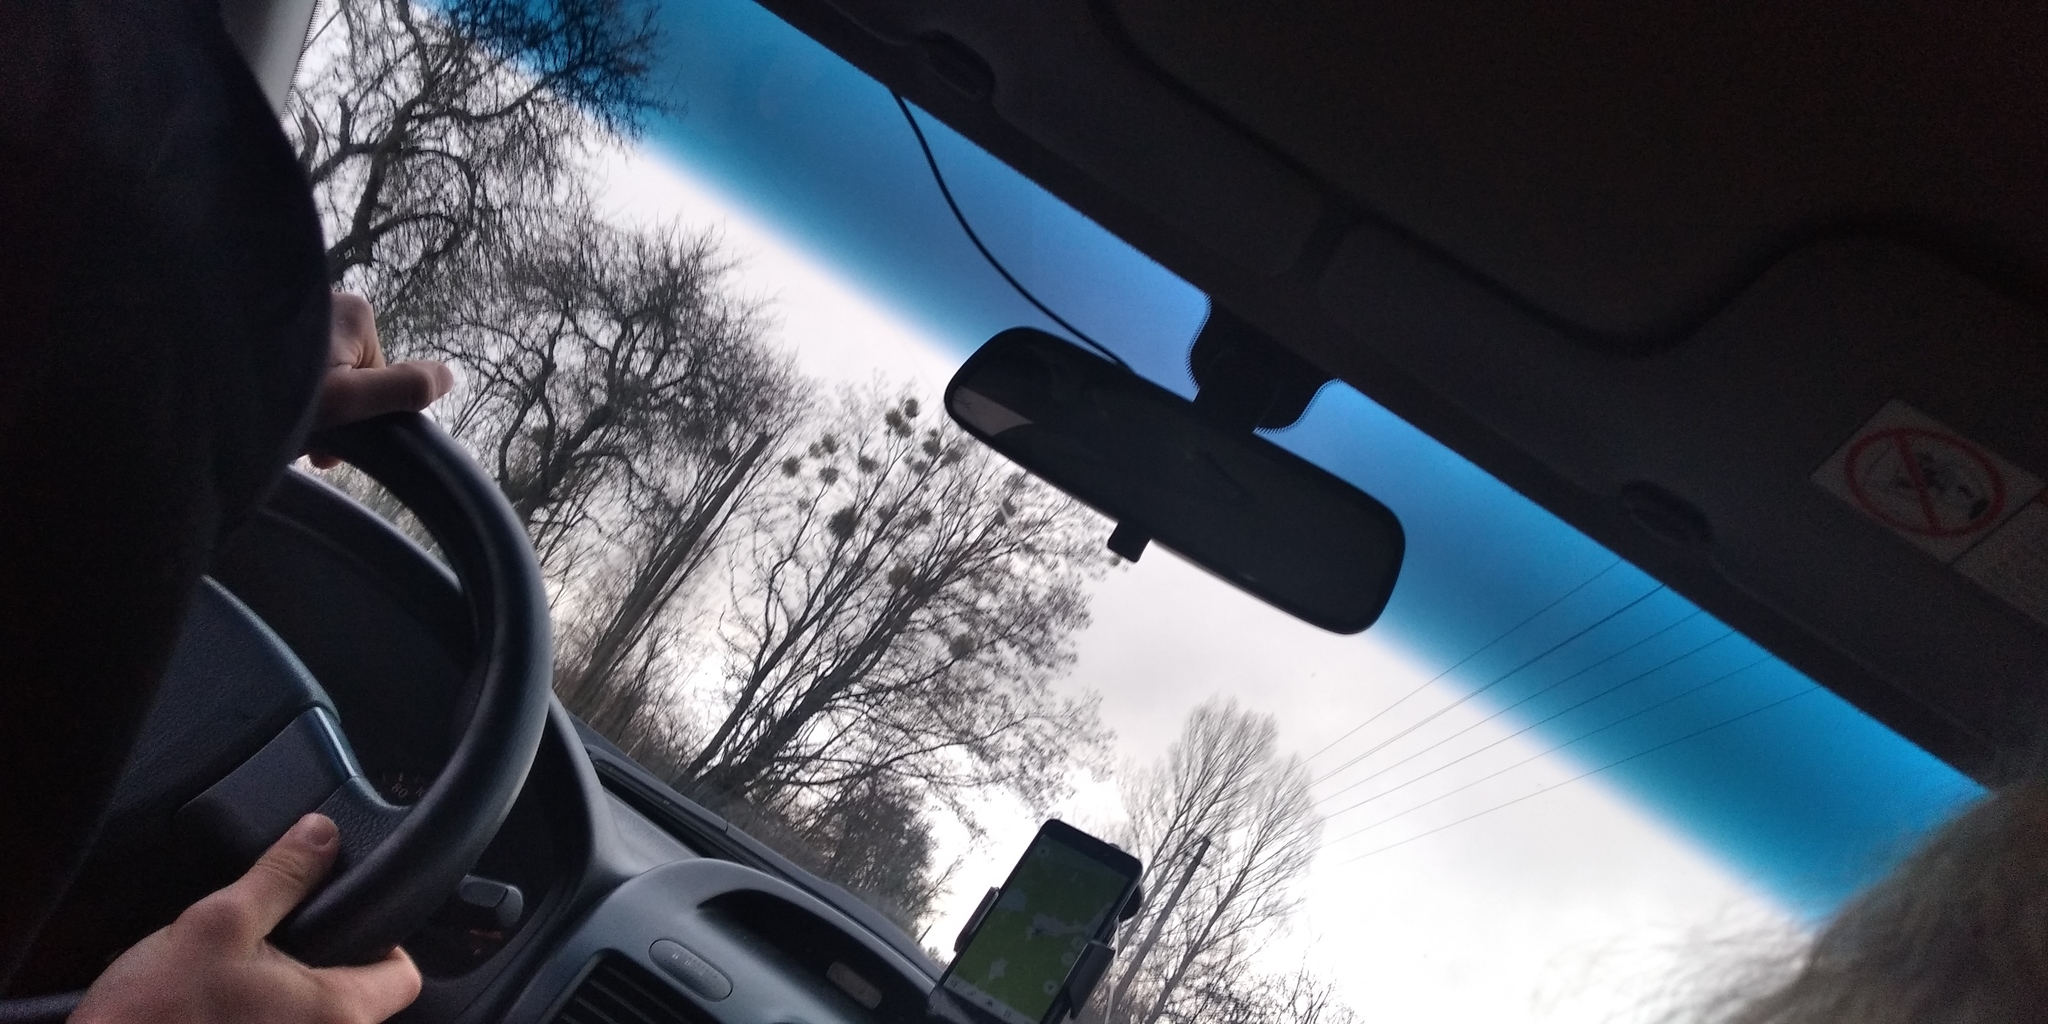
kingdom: Plantae
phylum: Tracheophyta
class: Magnoliopsida
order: Santalales
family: Viscaceae
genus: Viscum
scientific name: Viscum album
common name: Mistletoe
